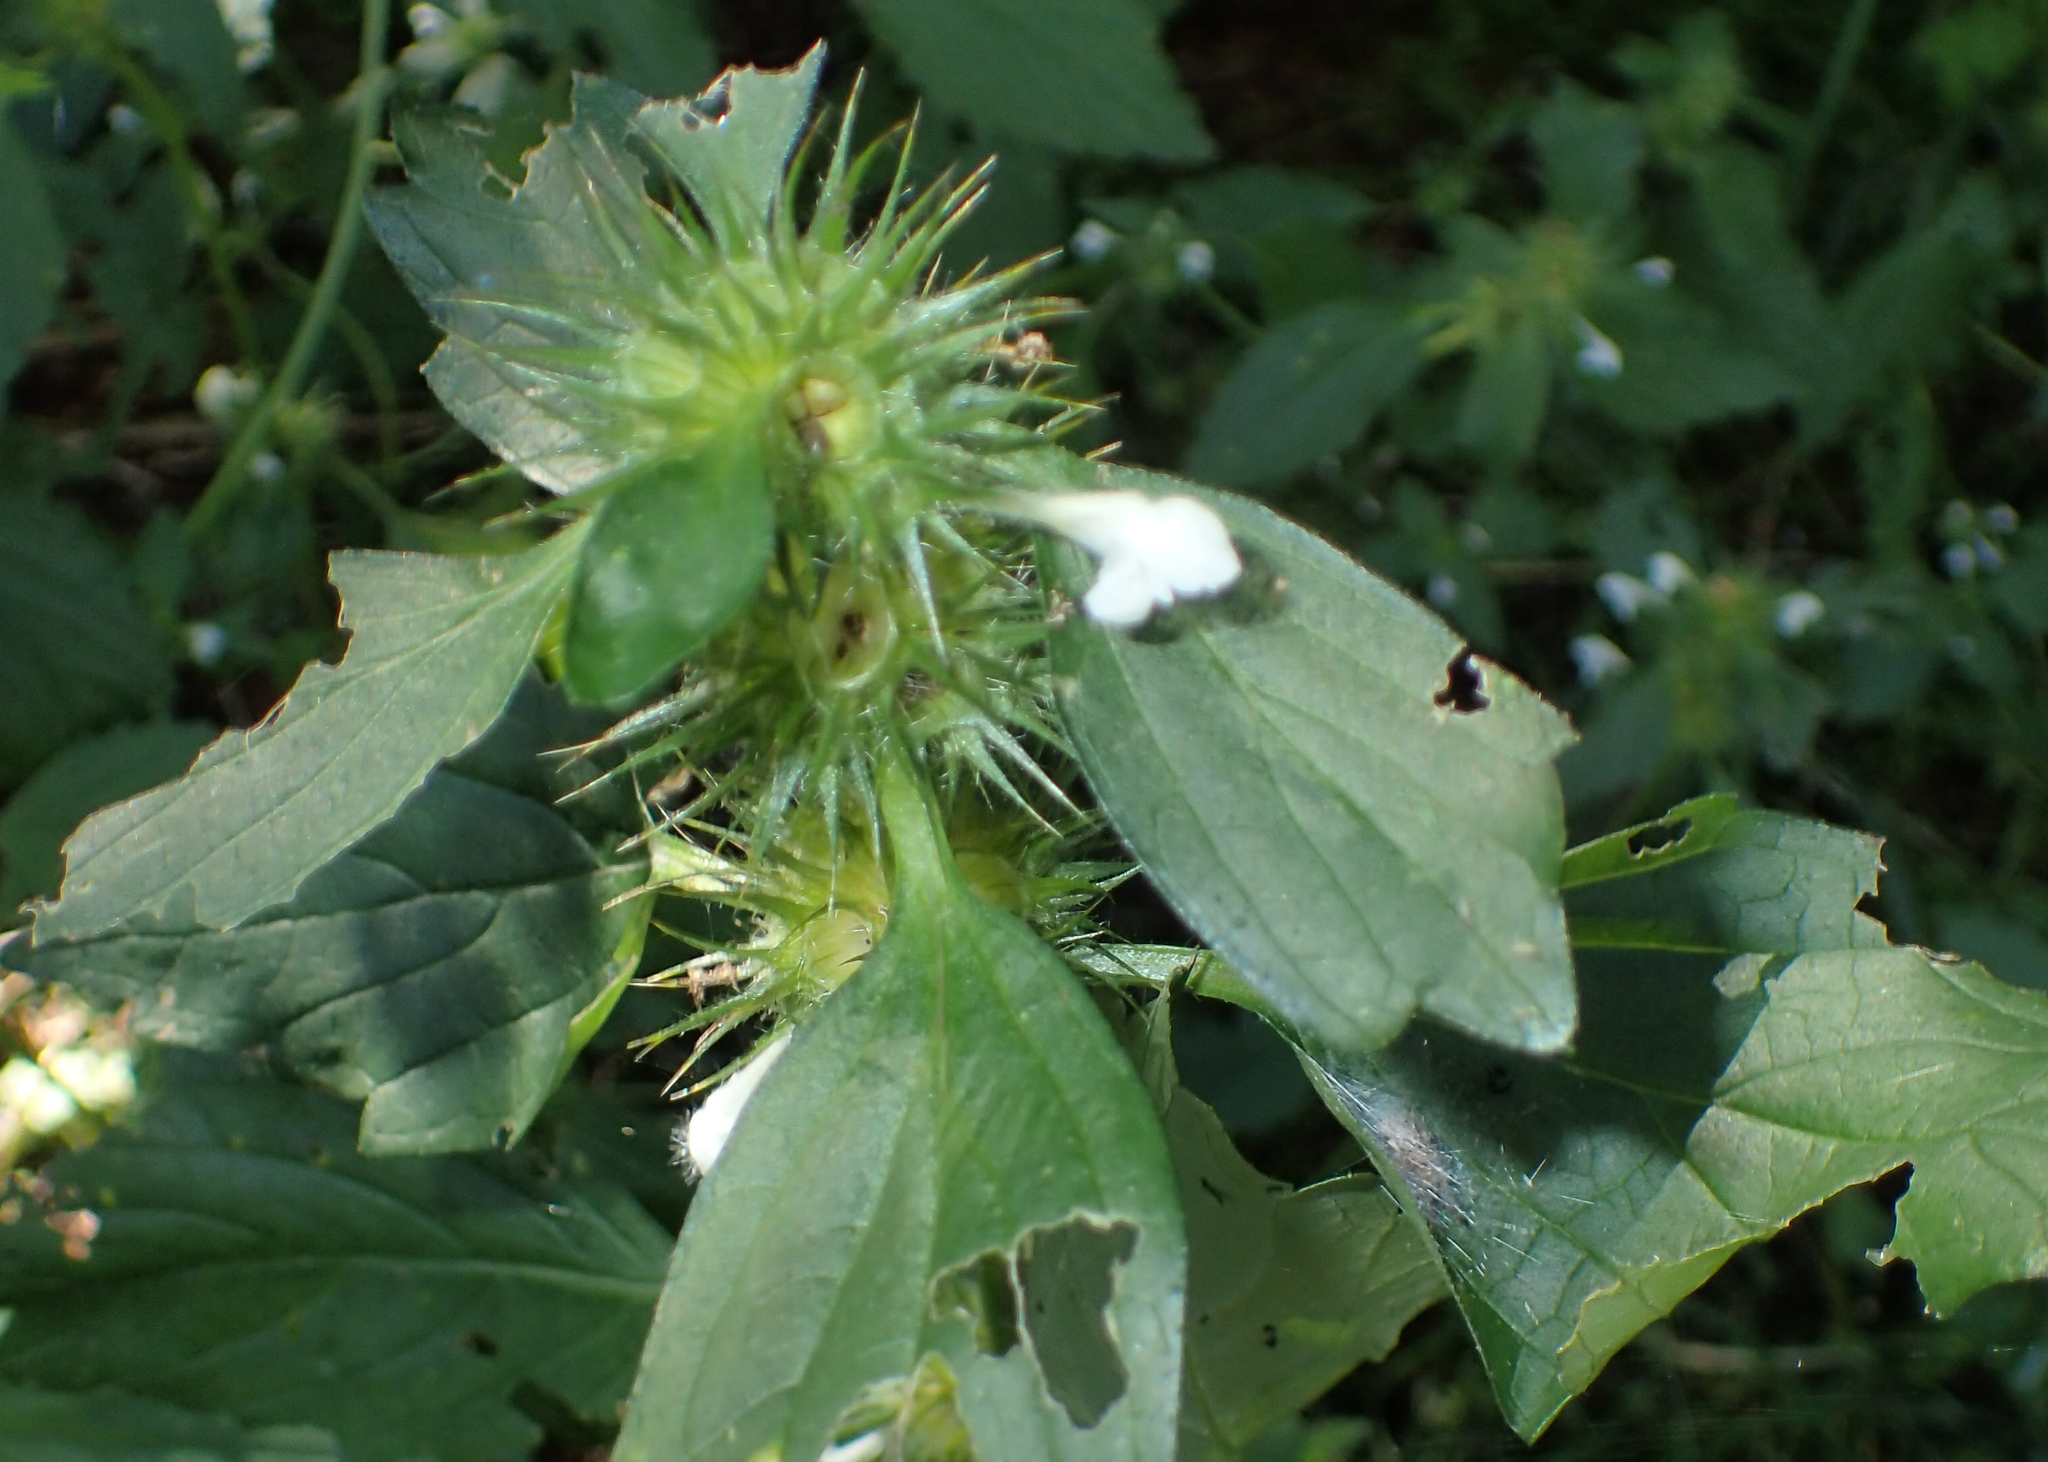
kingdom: Plantae
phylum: Tracheophyta
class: Magnoliopsida
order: Lamiales
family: Lamiaceae
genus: Galeopsis
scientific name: Galeopsis tetrahit
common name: Common hemp-nettle
